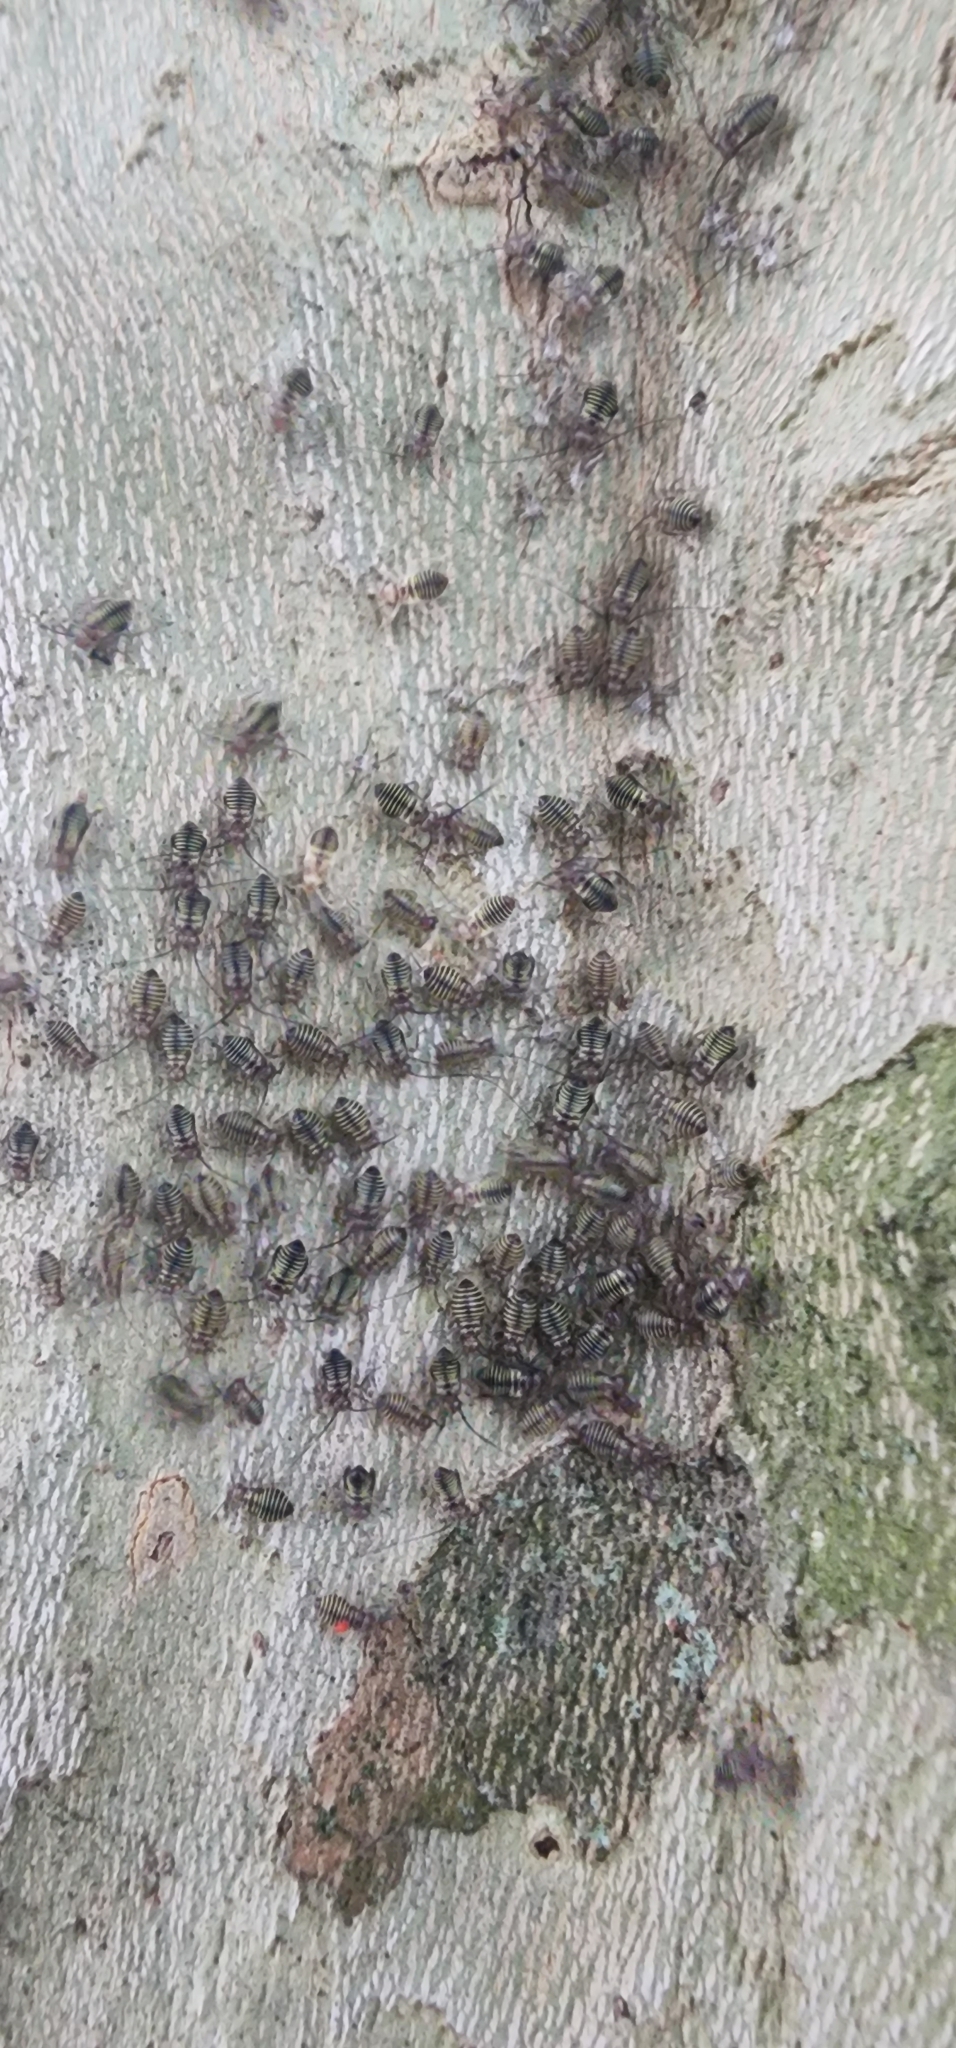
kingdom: Animalia
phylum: Arthropoda
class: Insecta
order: Psocodea
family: Psocidae
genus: Cerastipsocus
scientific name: Cerastipsocus venosus
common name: Tree cattle
